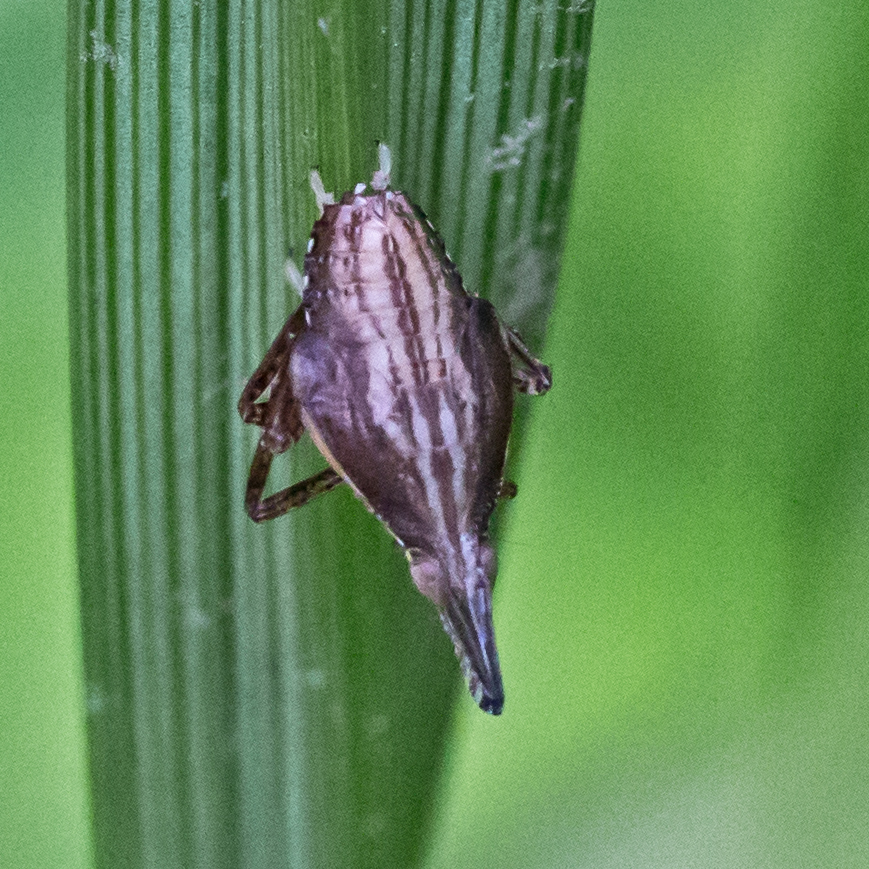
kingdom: Animalia
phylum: Arthropoda
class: Insecta
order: Hemiptera
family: Dictyopharidae
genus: Rhynchomitra
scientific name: Rhynchomitra microrhina
